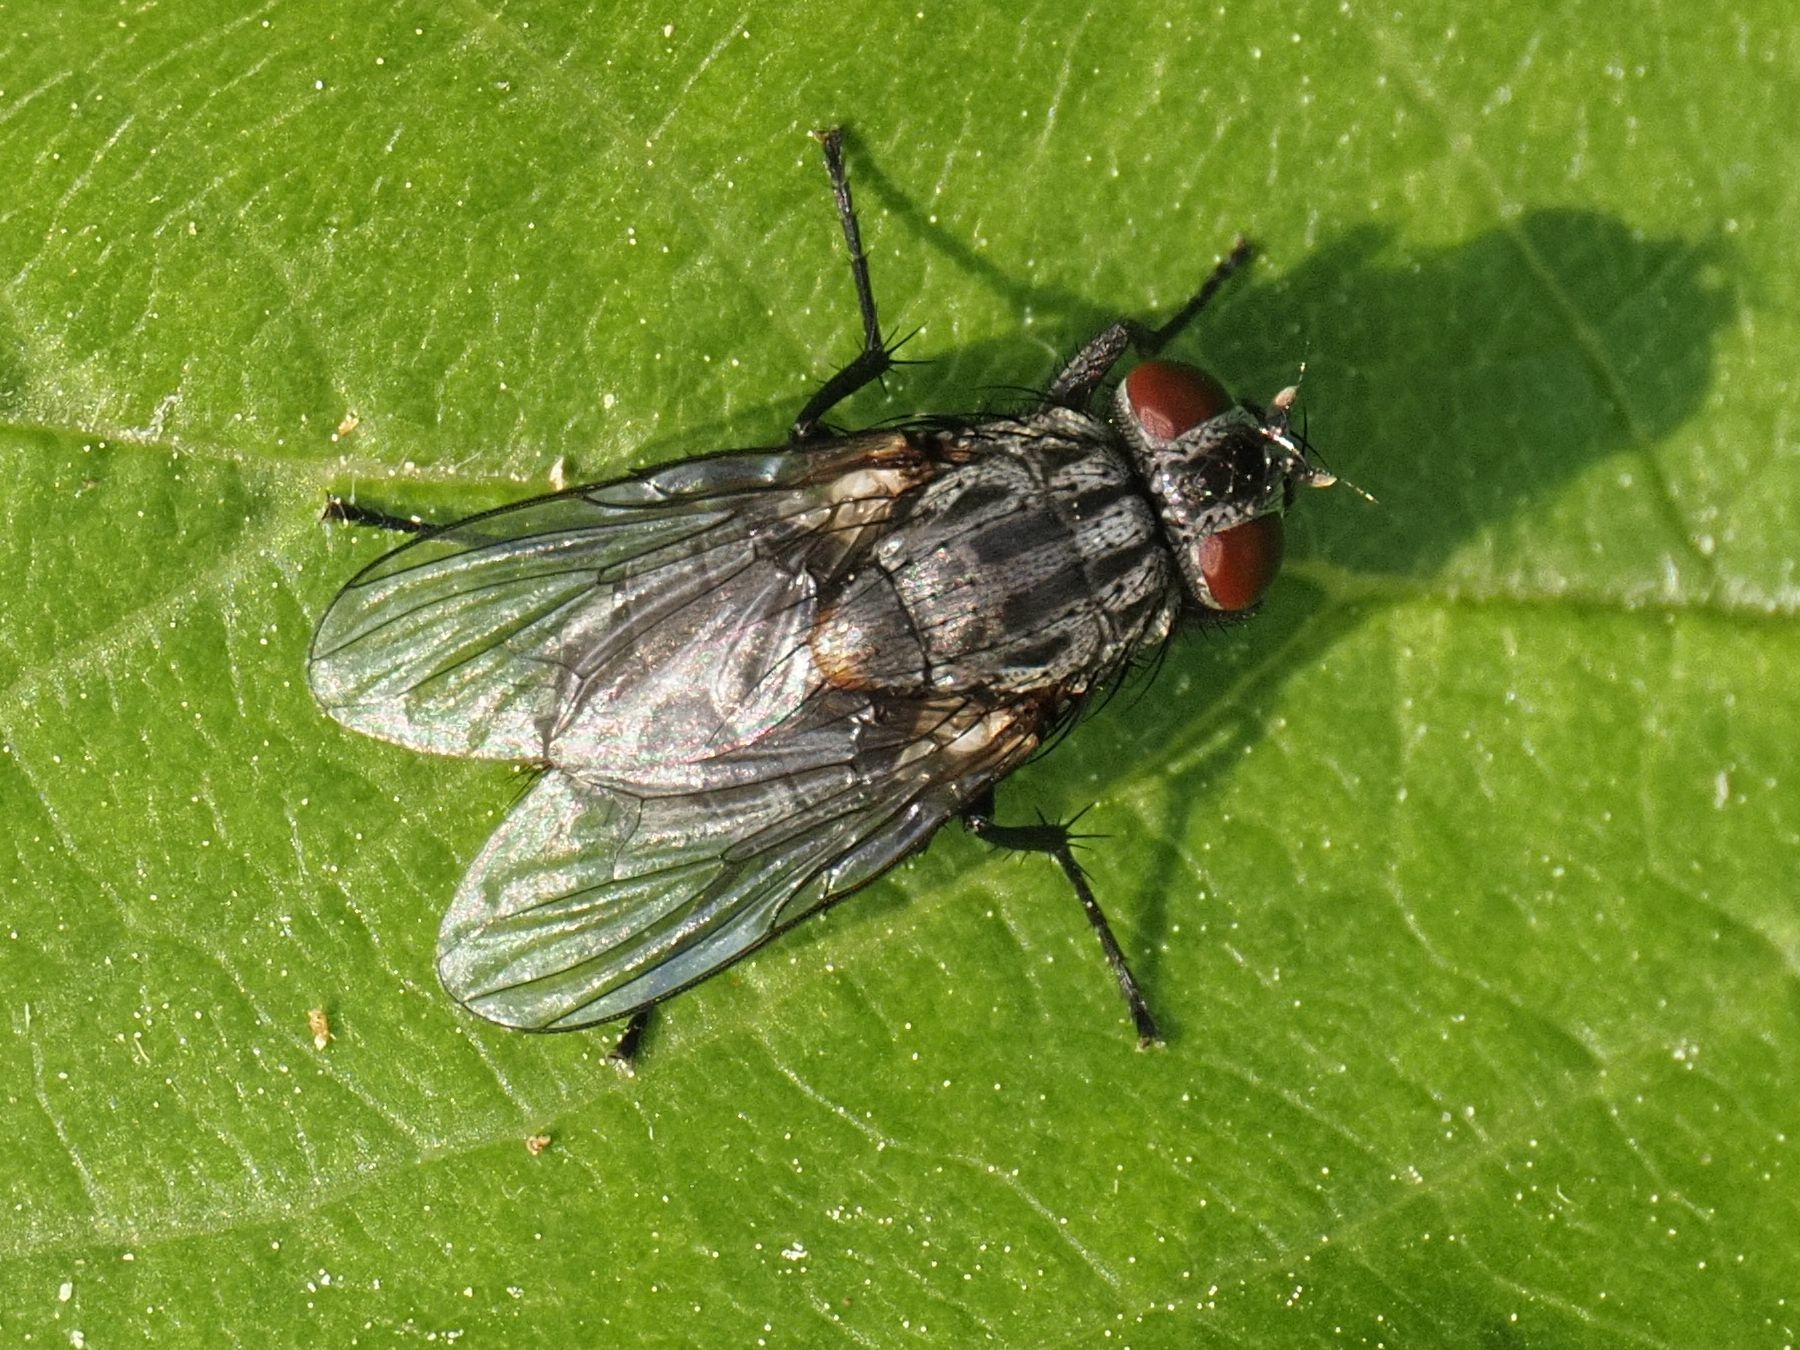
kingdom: Animalia
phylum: Arthropoda
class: Insecta
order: Diptera
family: Muscidae
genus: Muscina
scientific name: Muscina levida
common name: House fly
